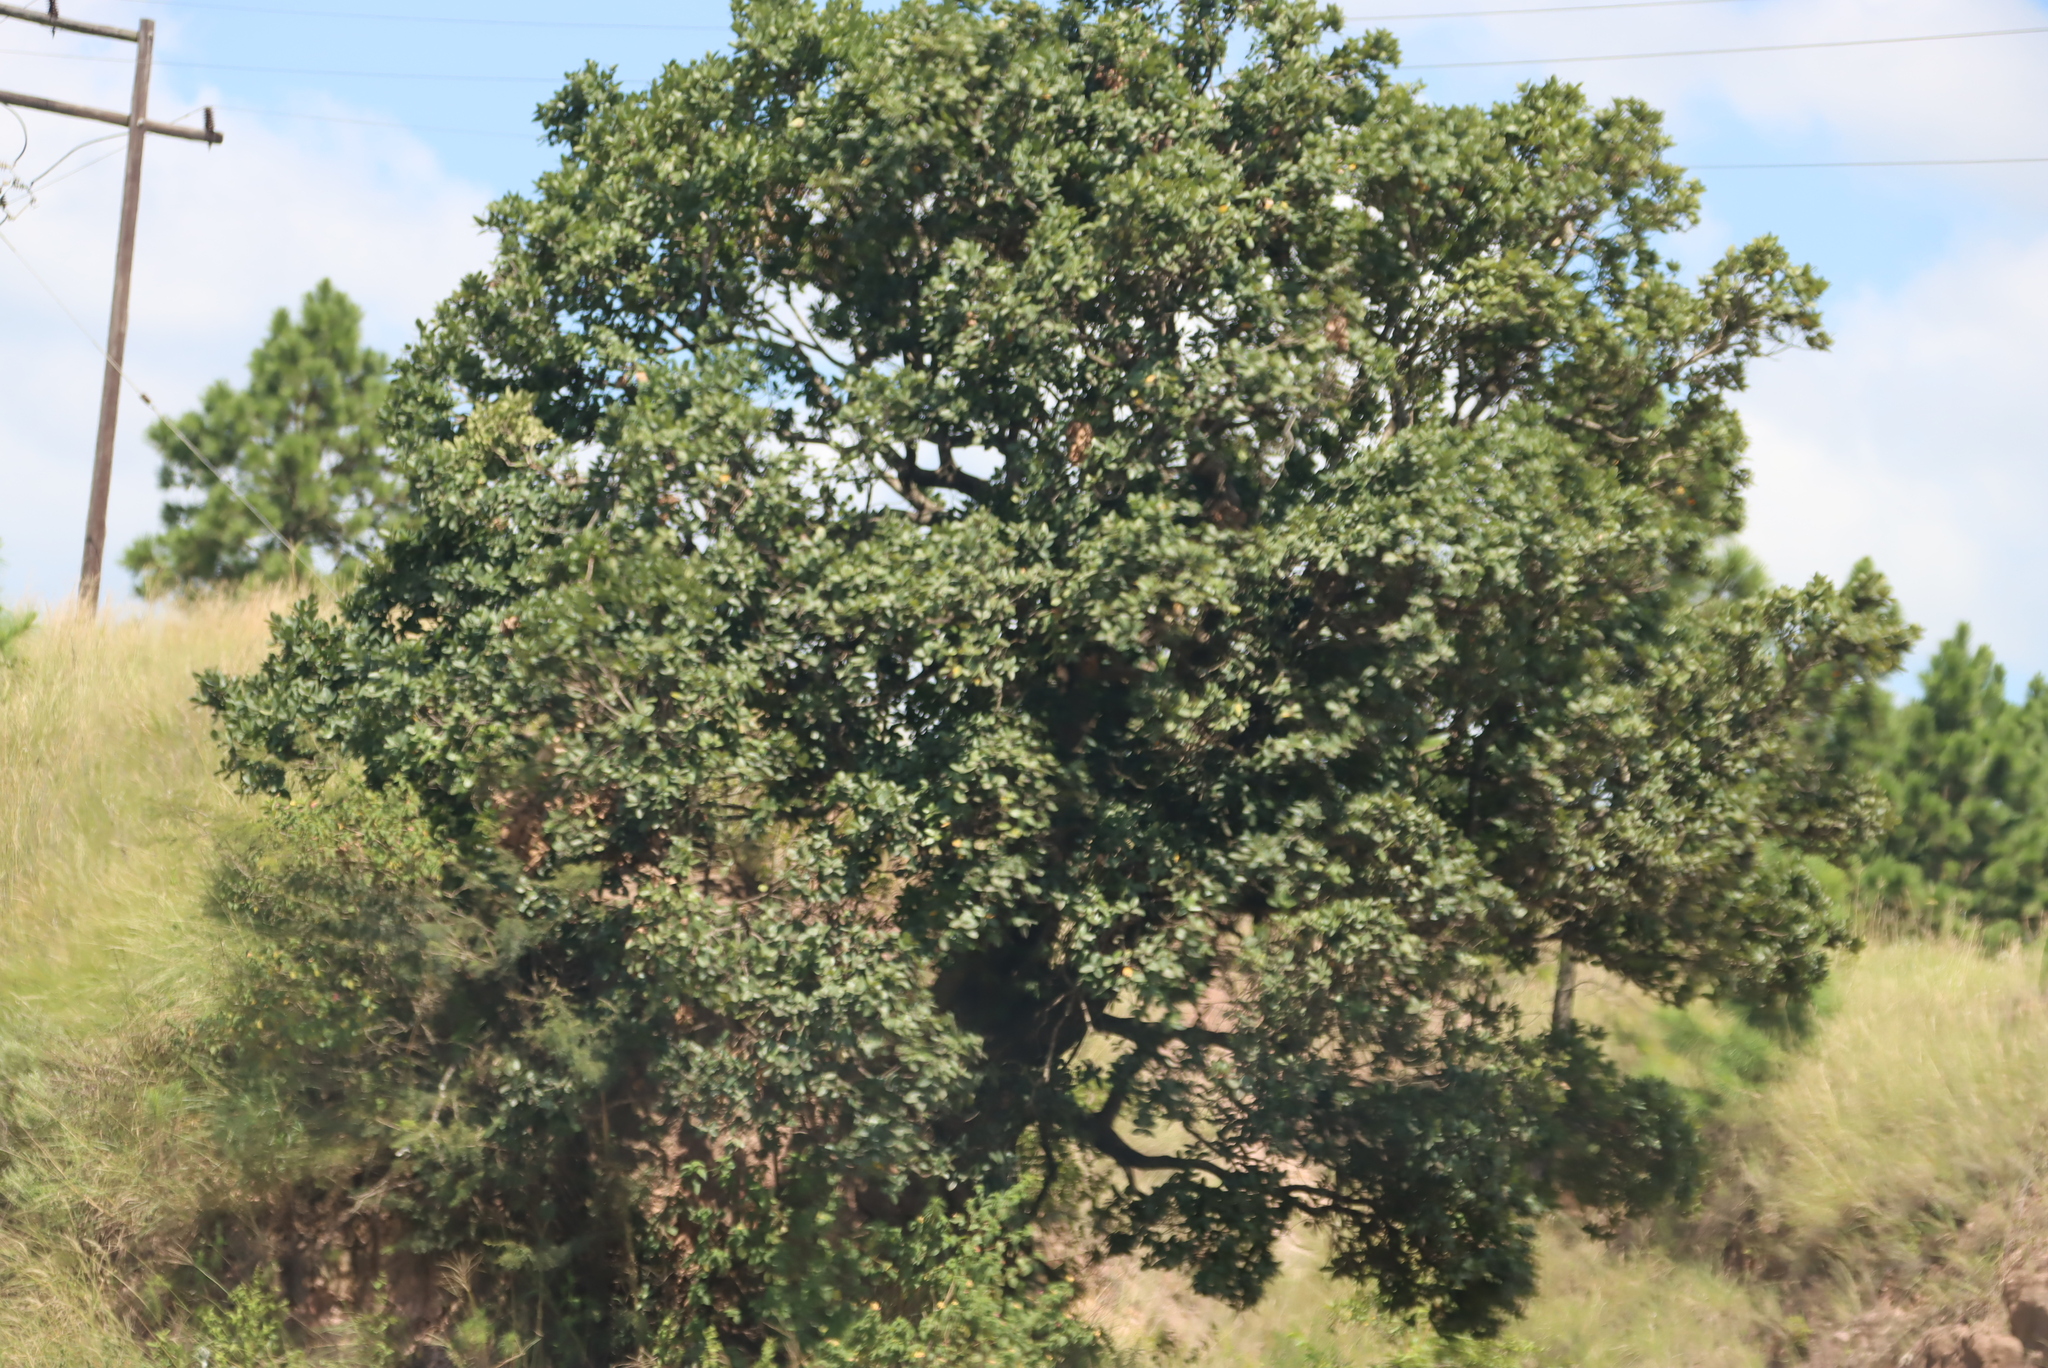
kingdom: Plantae
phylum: Tracheophyta
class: Magnoliopsida
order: Myrtales
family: Myrtaceae
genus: Syzygium
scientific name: Syzygium cordatum
